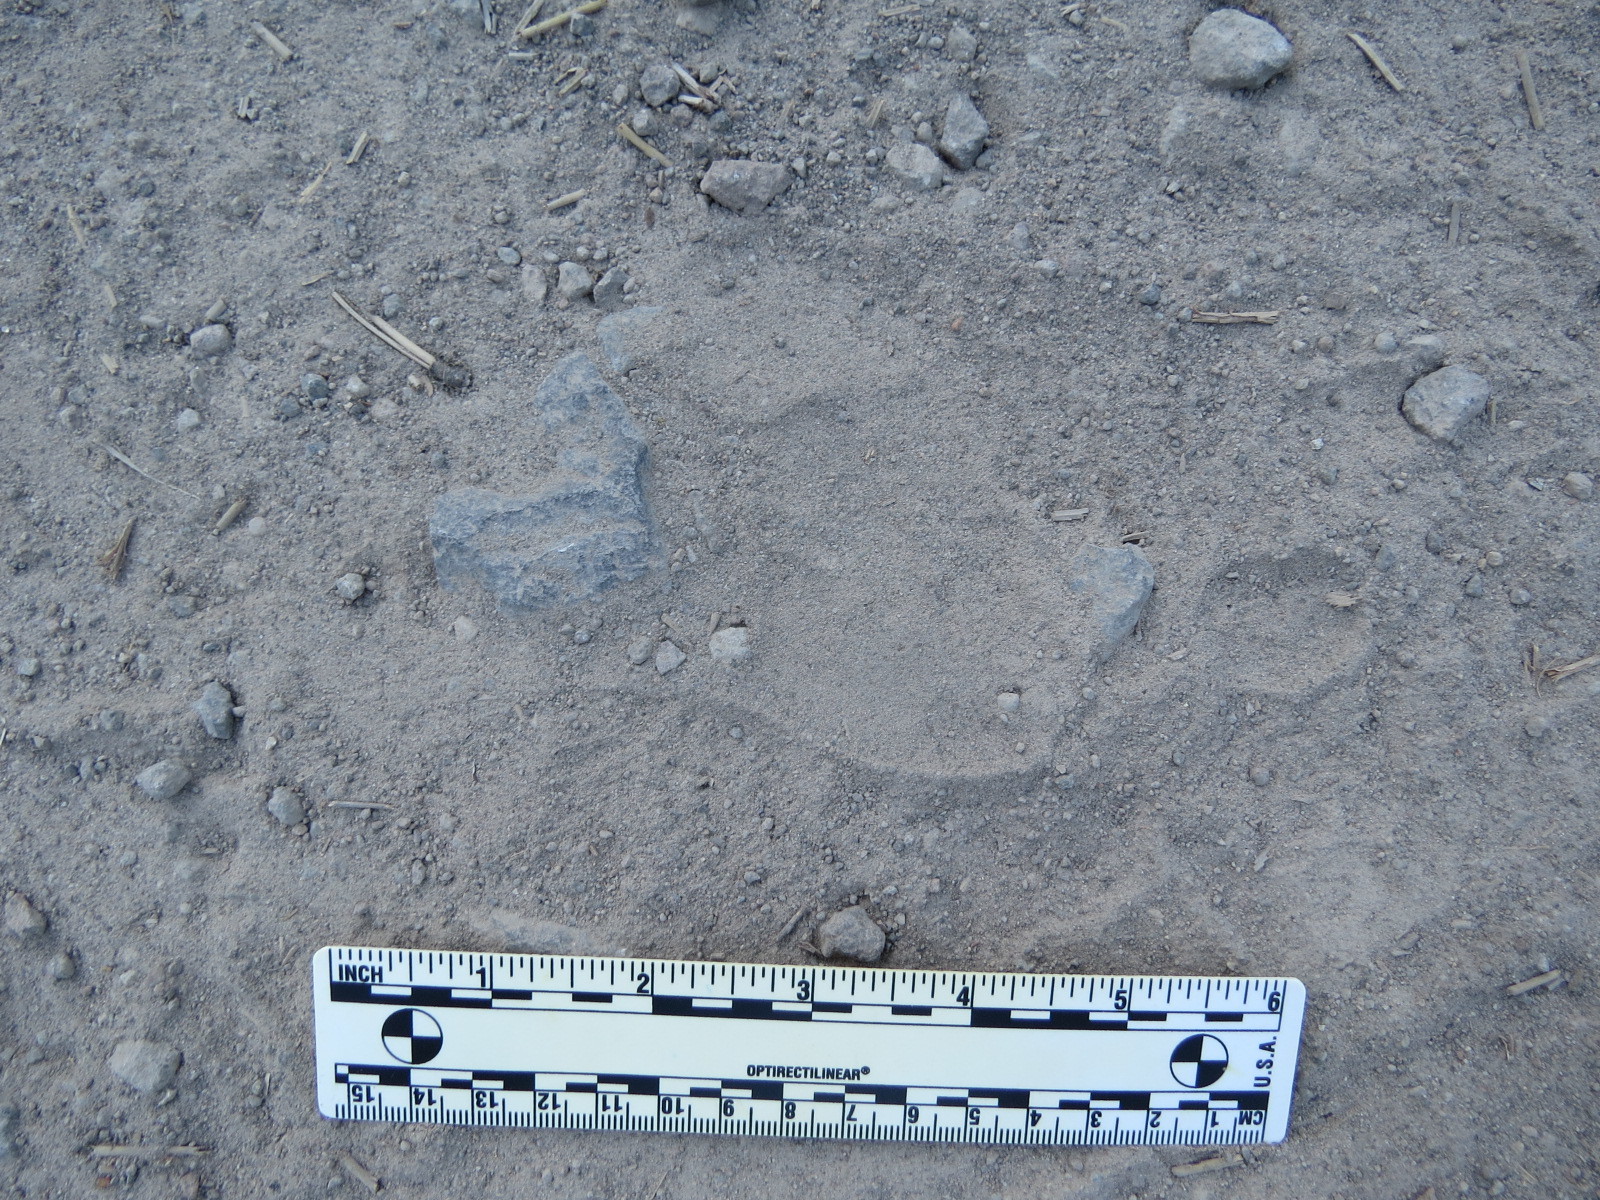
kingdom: Animalia
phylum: Chordata
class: Mammalia
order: Carnivora
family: Ursidae
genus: Ursus
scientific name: Ursus americanus
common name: American black bear
